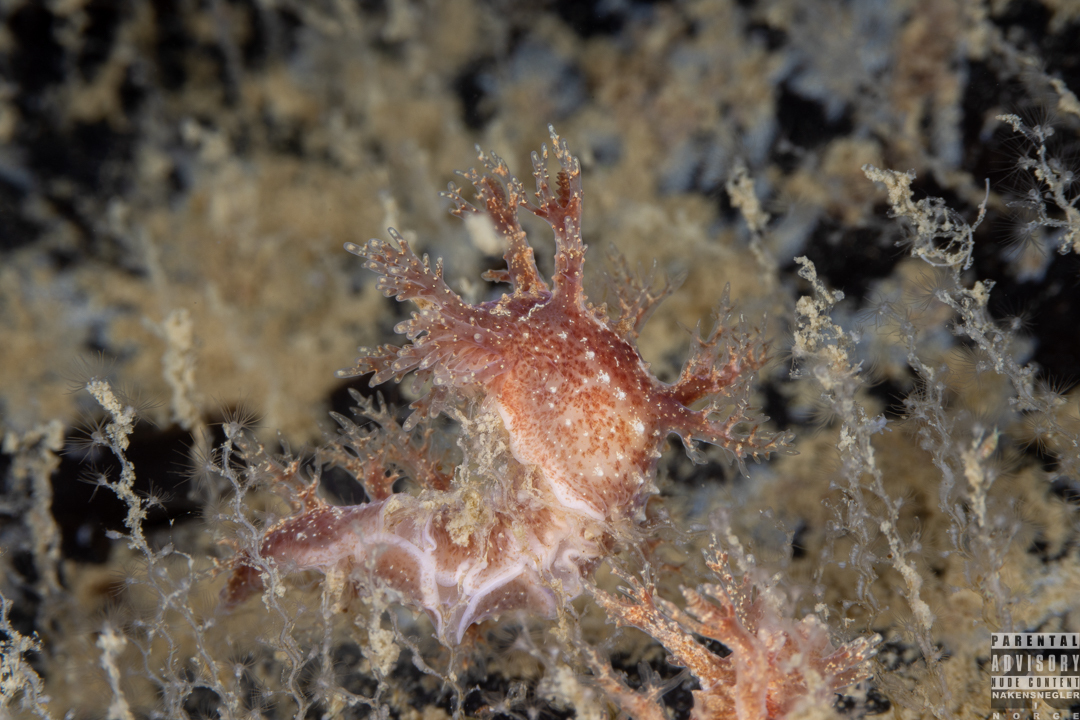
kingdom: Animalia
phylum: Mollusca
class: Gastropoda
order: Nudibranchia
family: Dendronotidae
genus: Dendronotus
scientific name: Dendronotus frondosus
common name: Bushy-backed nudibranch
